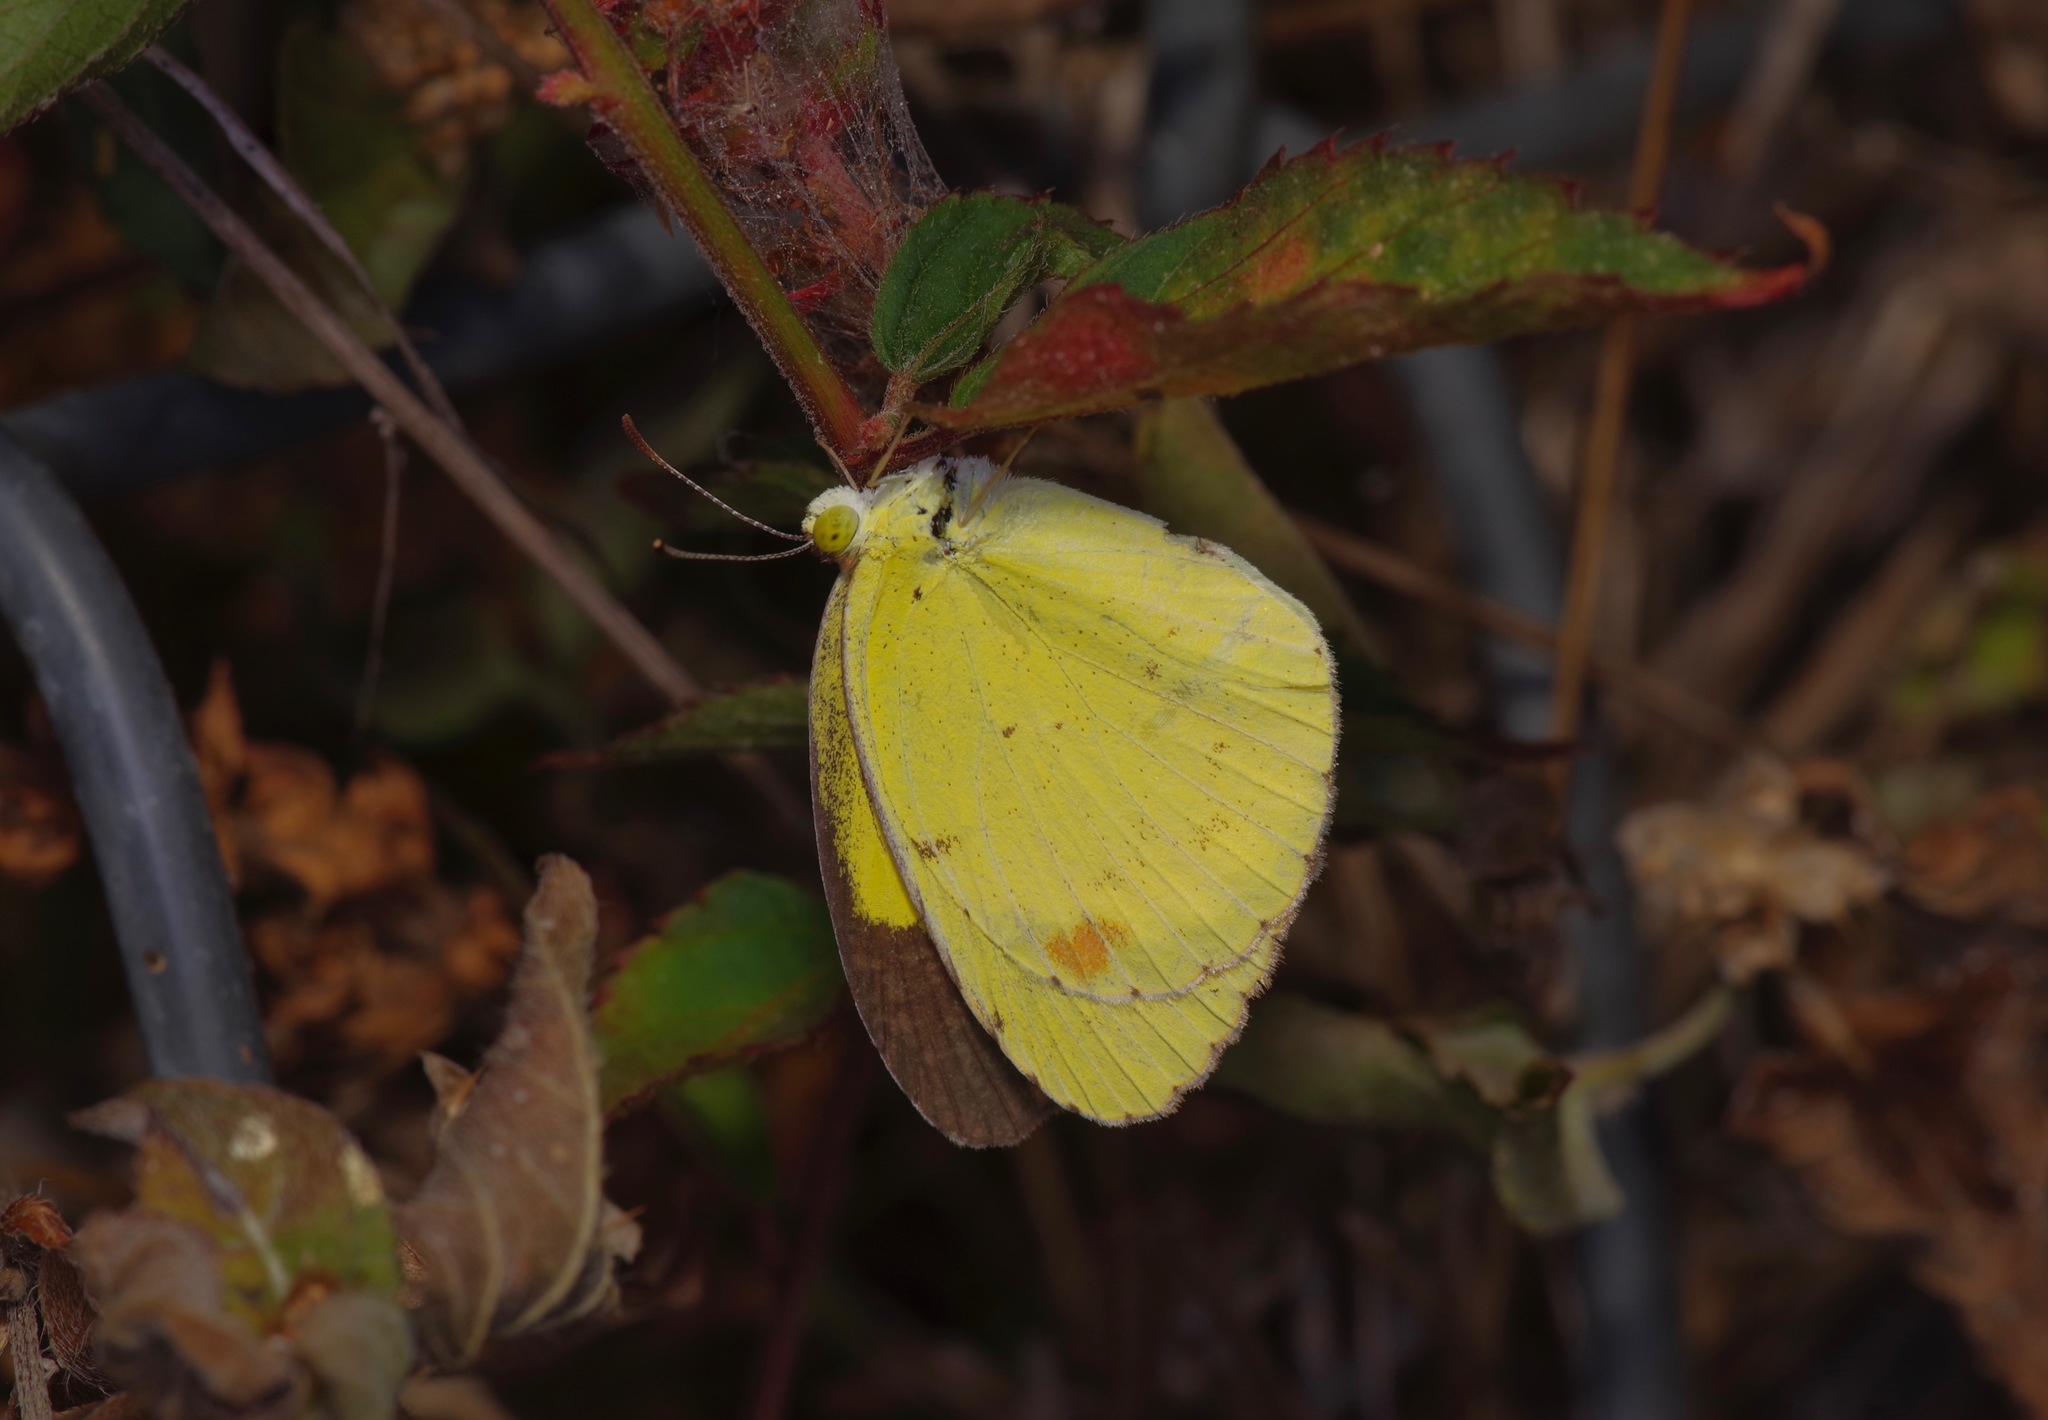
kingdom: Animalia
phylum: Arthropoda
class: Insecta
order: Lepidoptera
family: Pieridae
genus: Pyrisitia
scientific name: Pyrisitia lisa
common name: Little yellow
